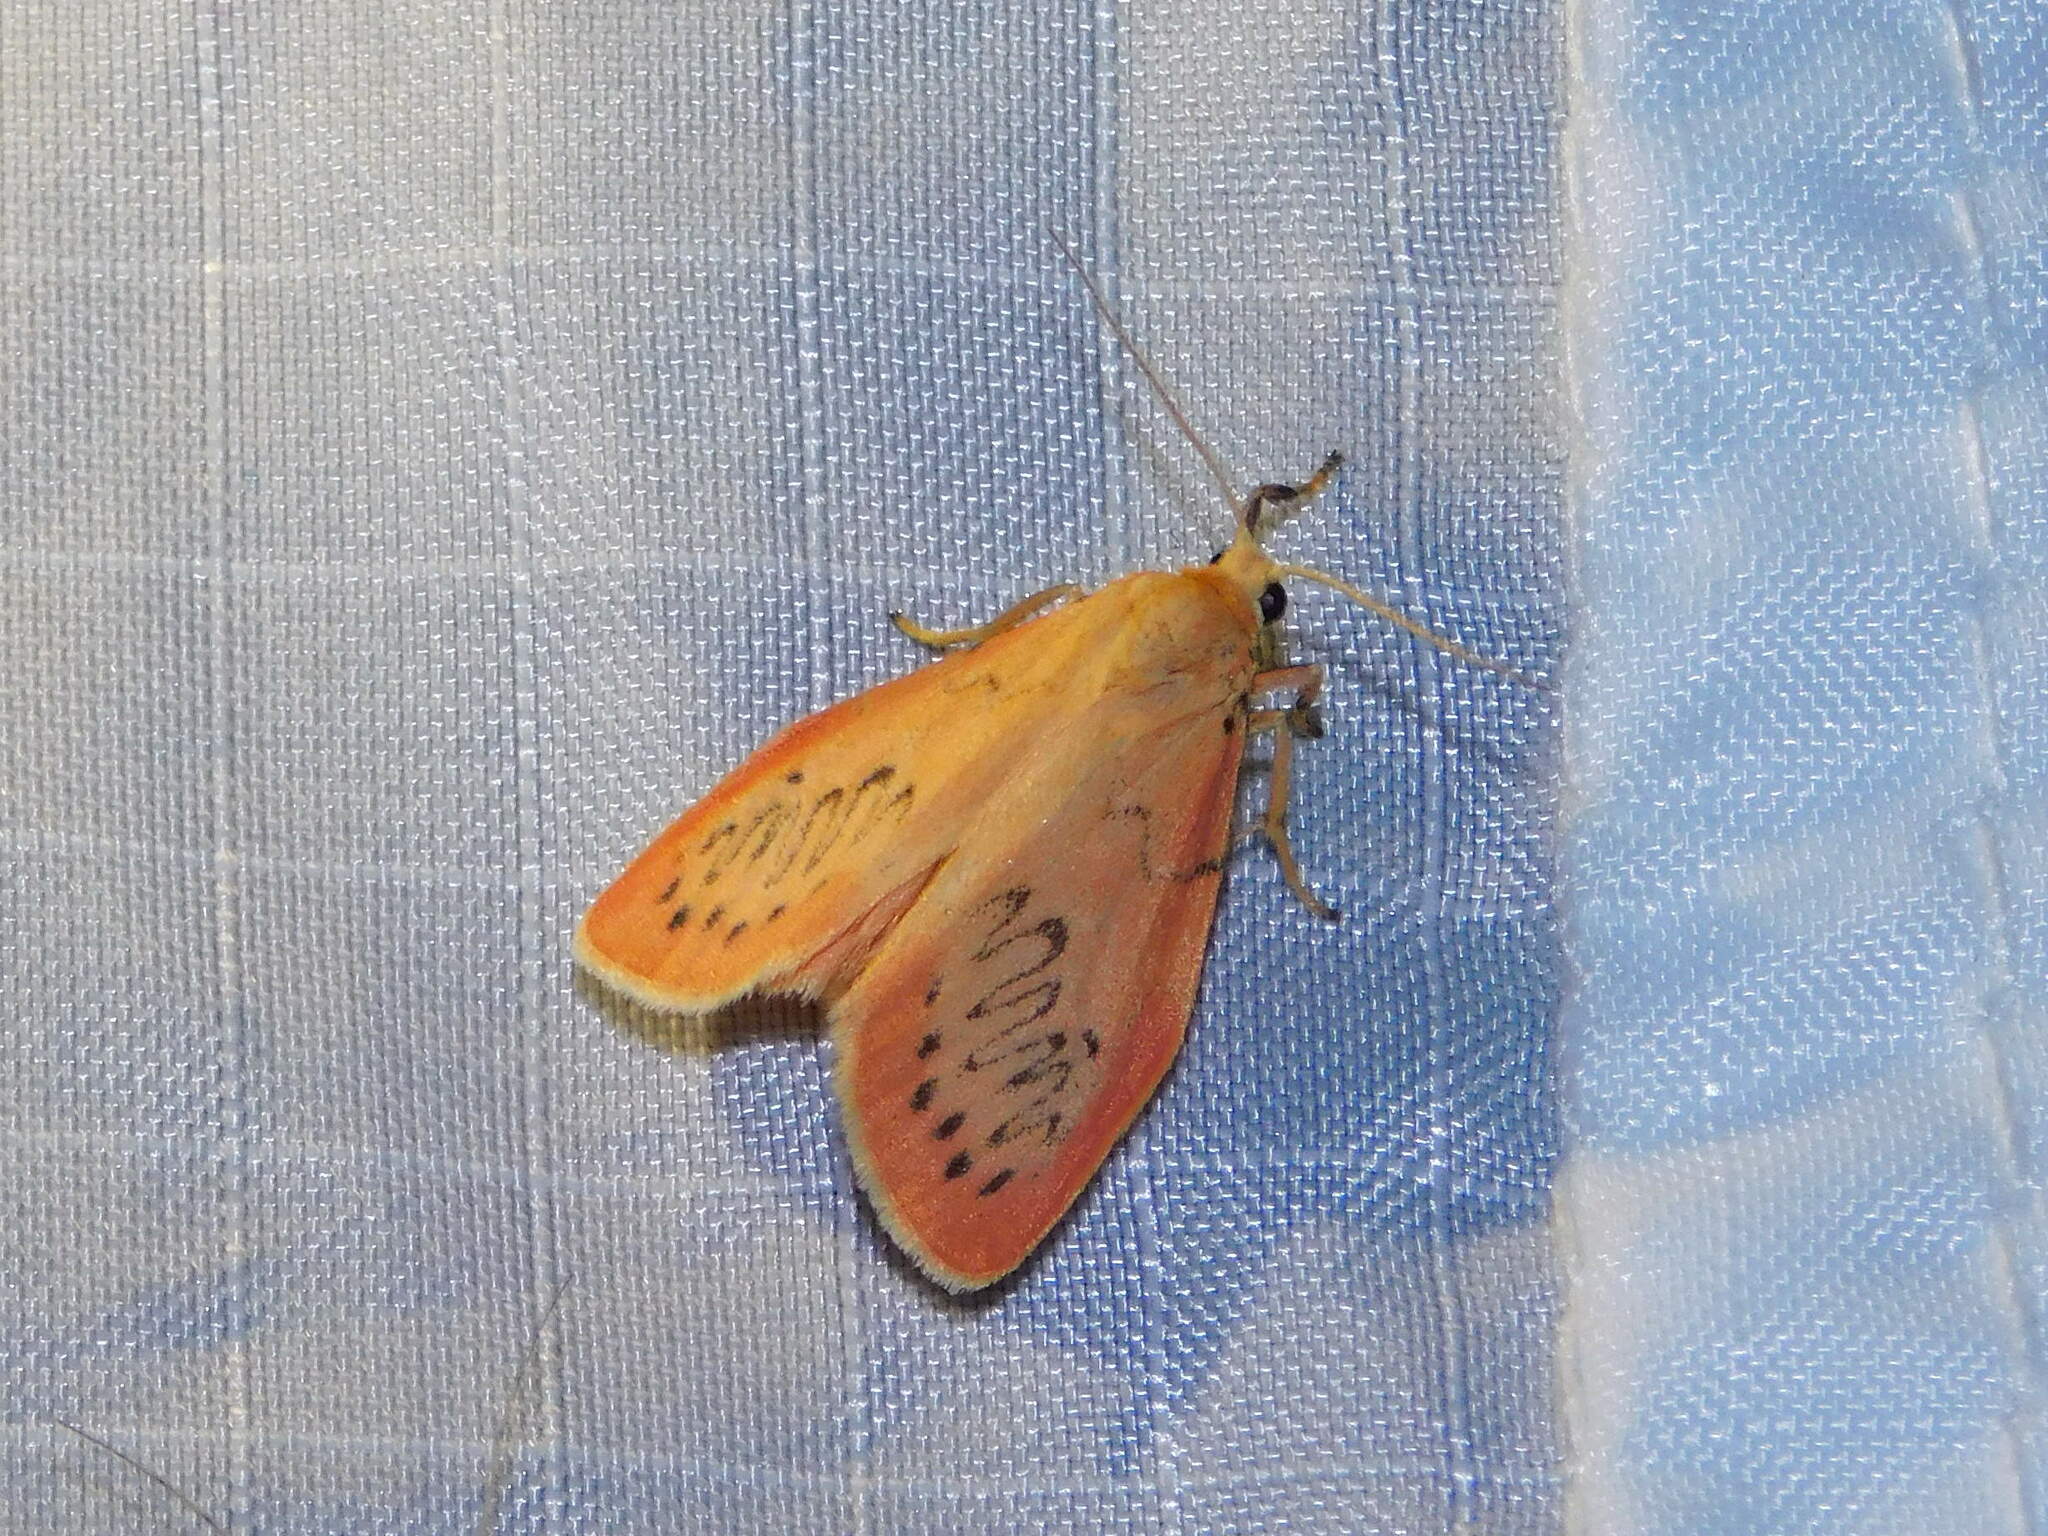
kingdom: Animalia
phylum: Arthropoda
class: Insecta
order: Lepidoptera
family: Erebidae
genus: Miltochrista
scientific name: Miltochrista miniata
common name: Rosy footman
